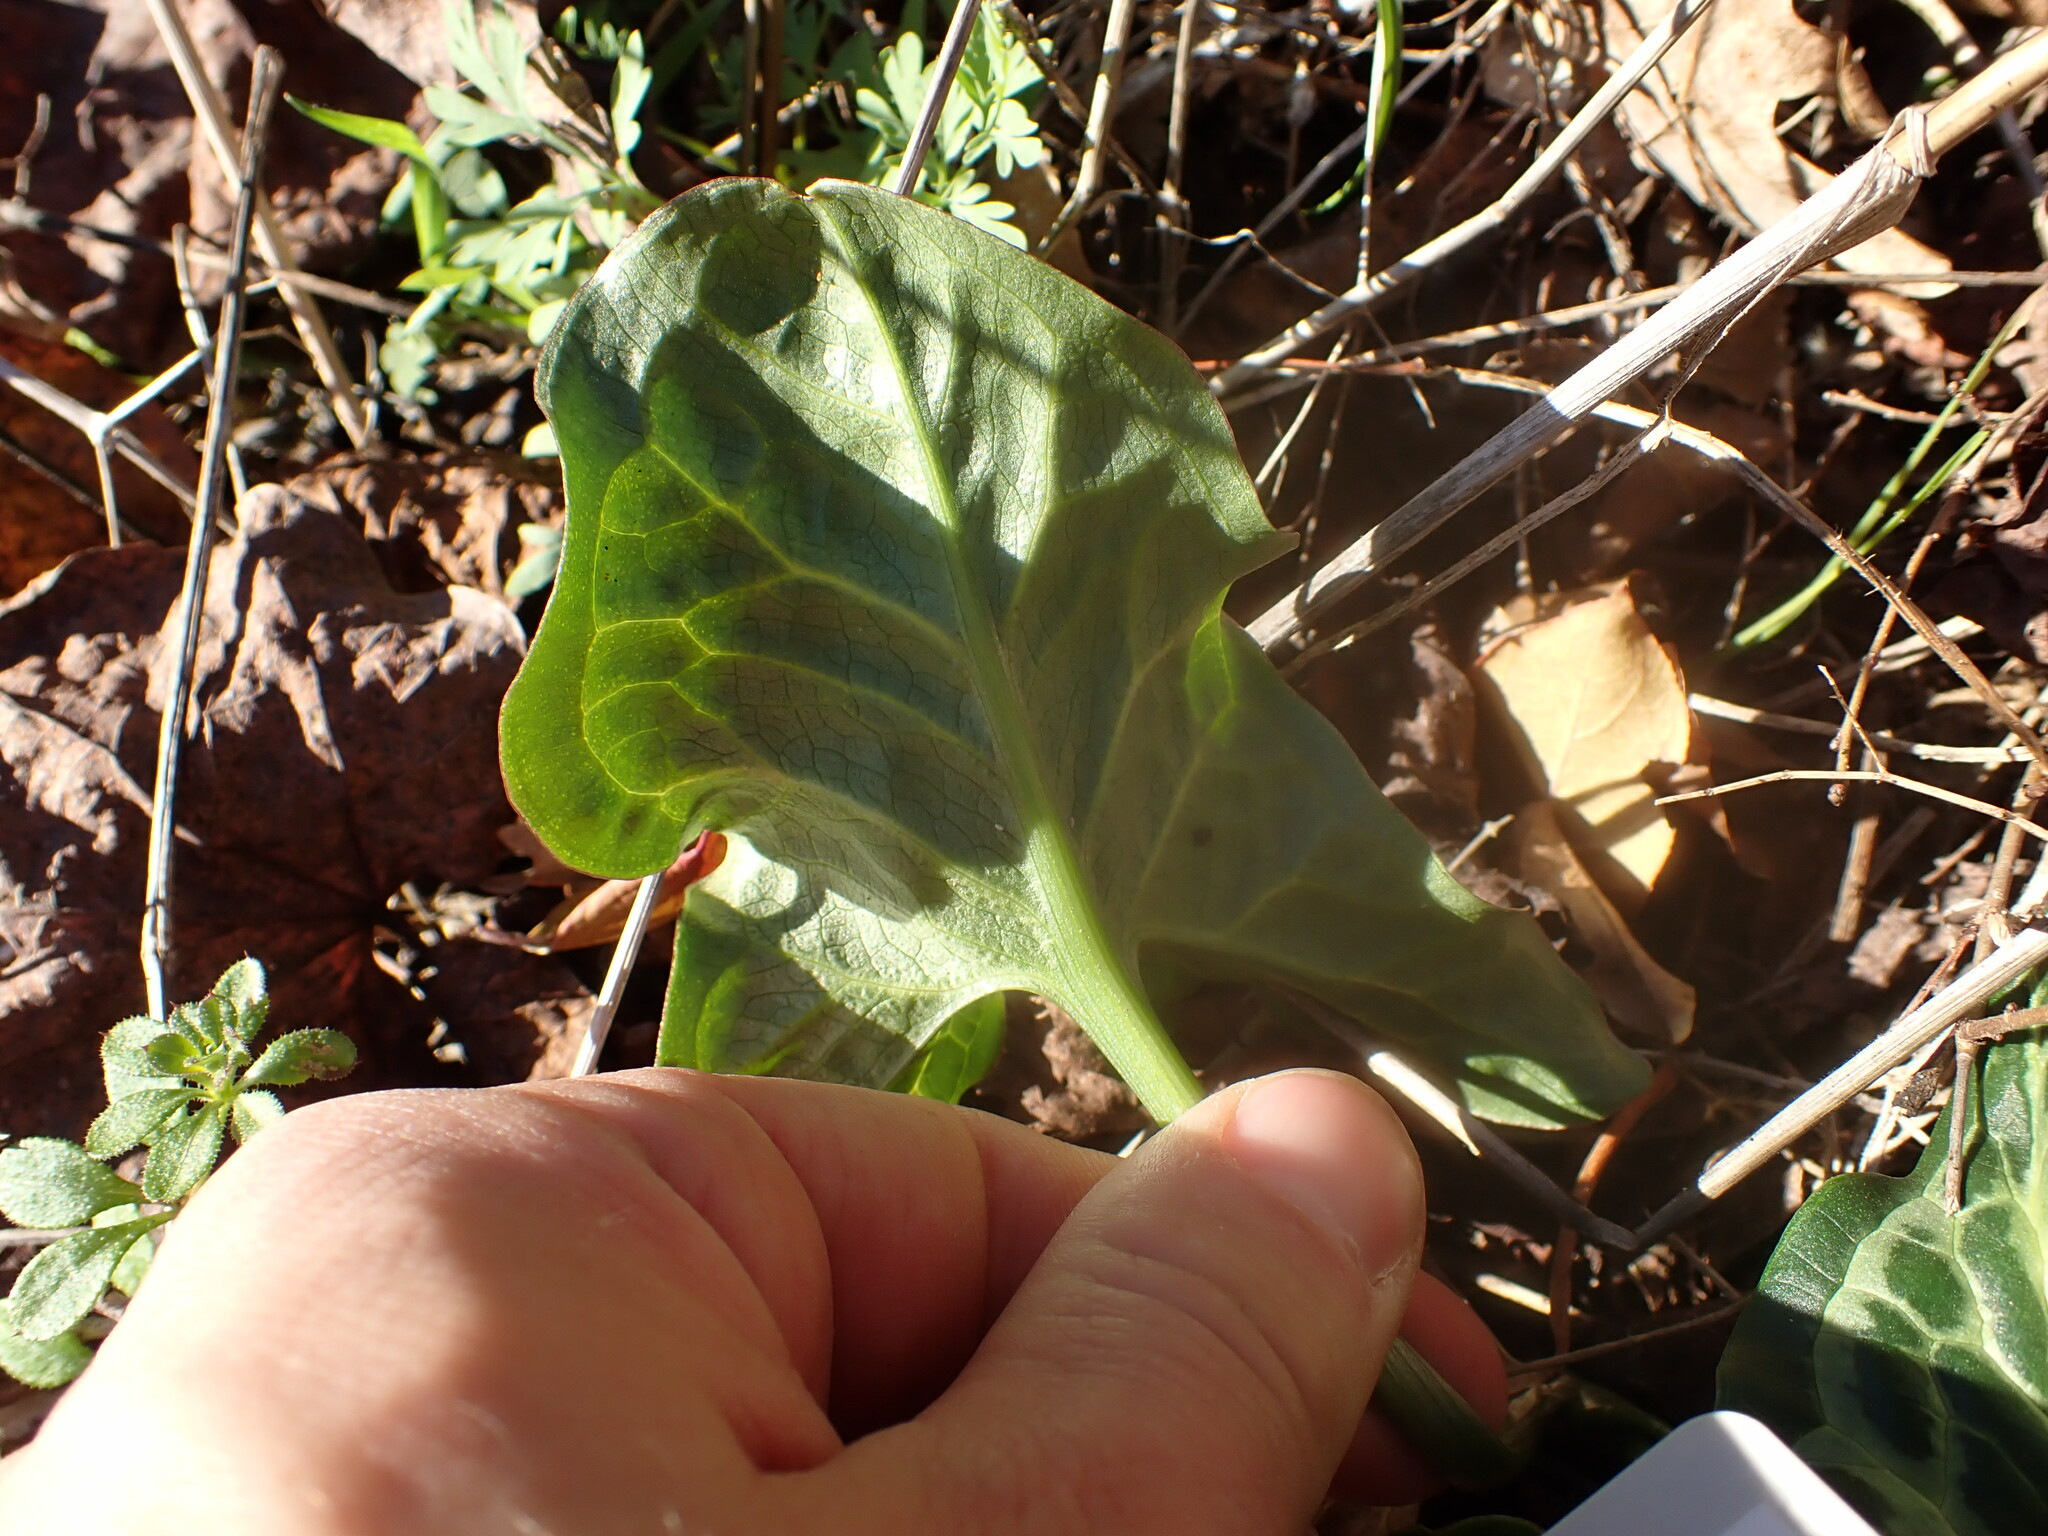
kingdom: Plantae
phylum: Tracheophyta
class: Liliopsida
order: Alismatales
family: Araceae
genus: Arum
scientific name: Arum italicum
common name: Italian lords-and-ladies
